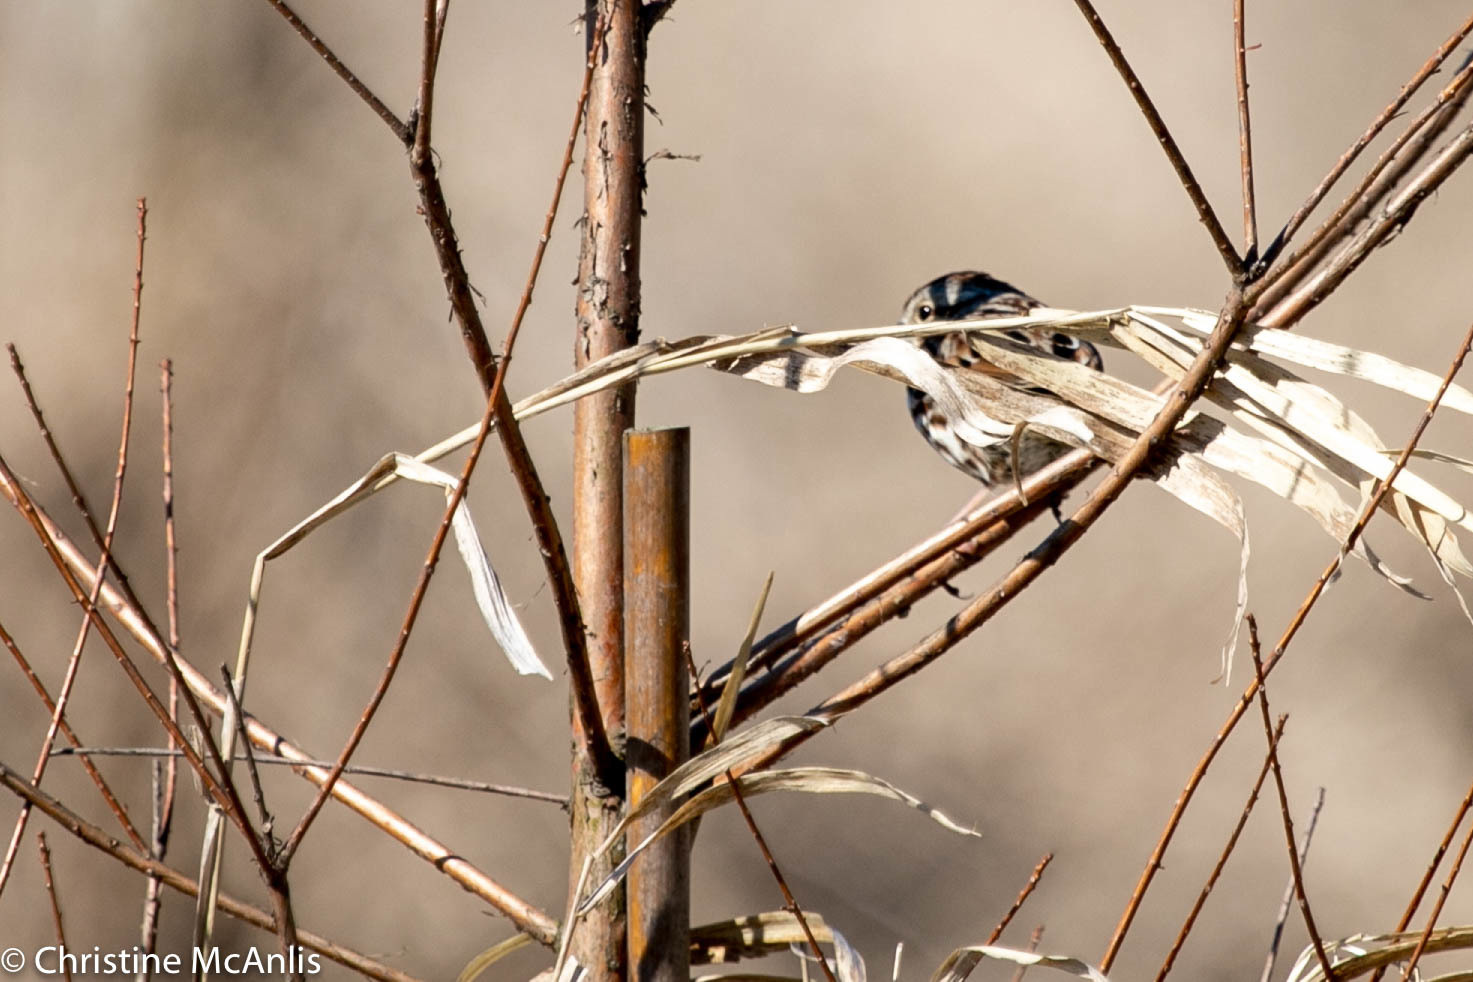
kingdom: Animalia
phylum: Chordata
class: Aves
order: Passeriformes
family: Passerellidae
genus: Melospiza
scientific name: Melospiza melodia
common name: Song sparrow
